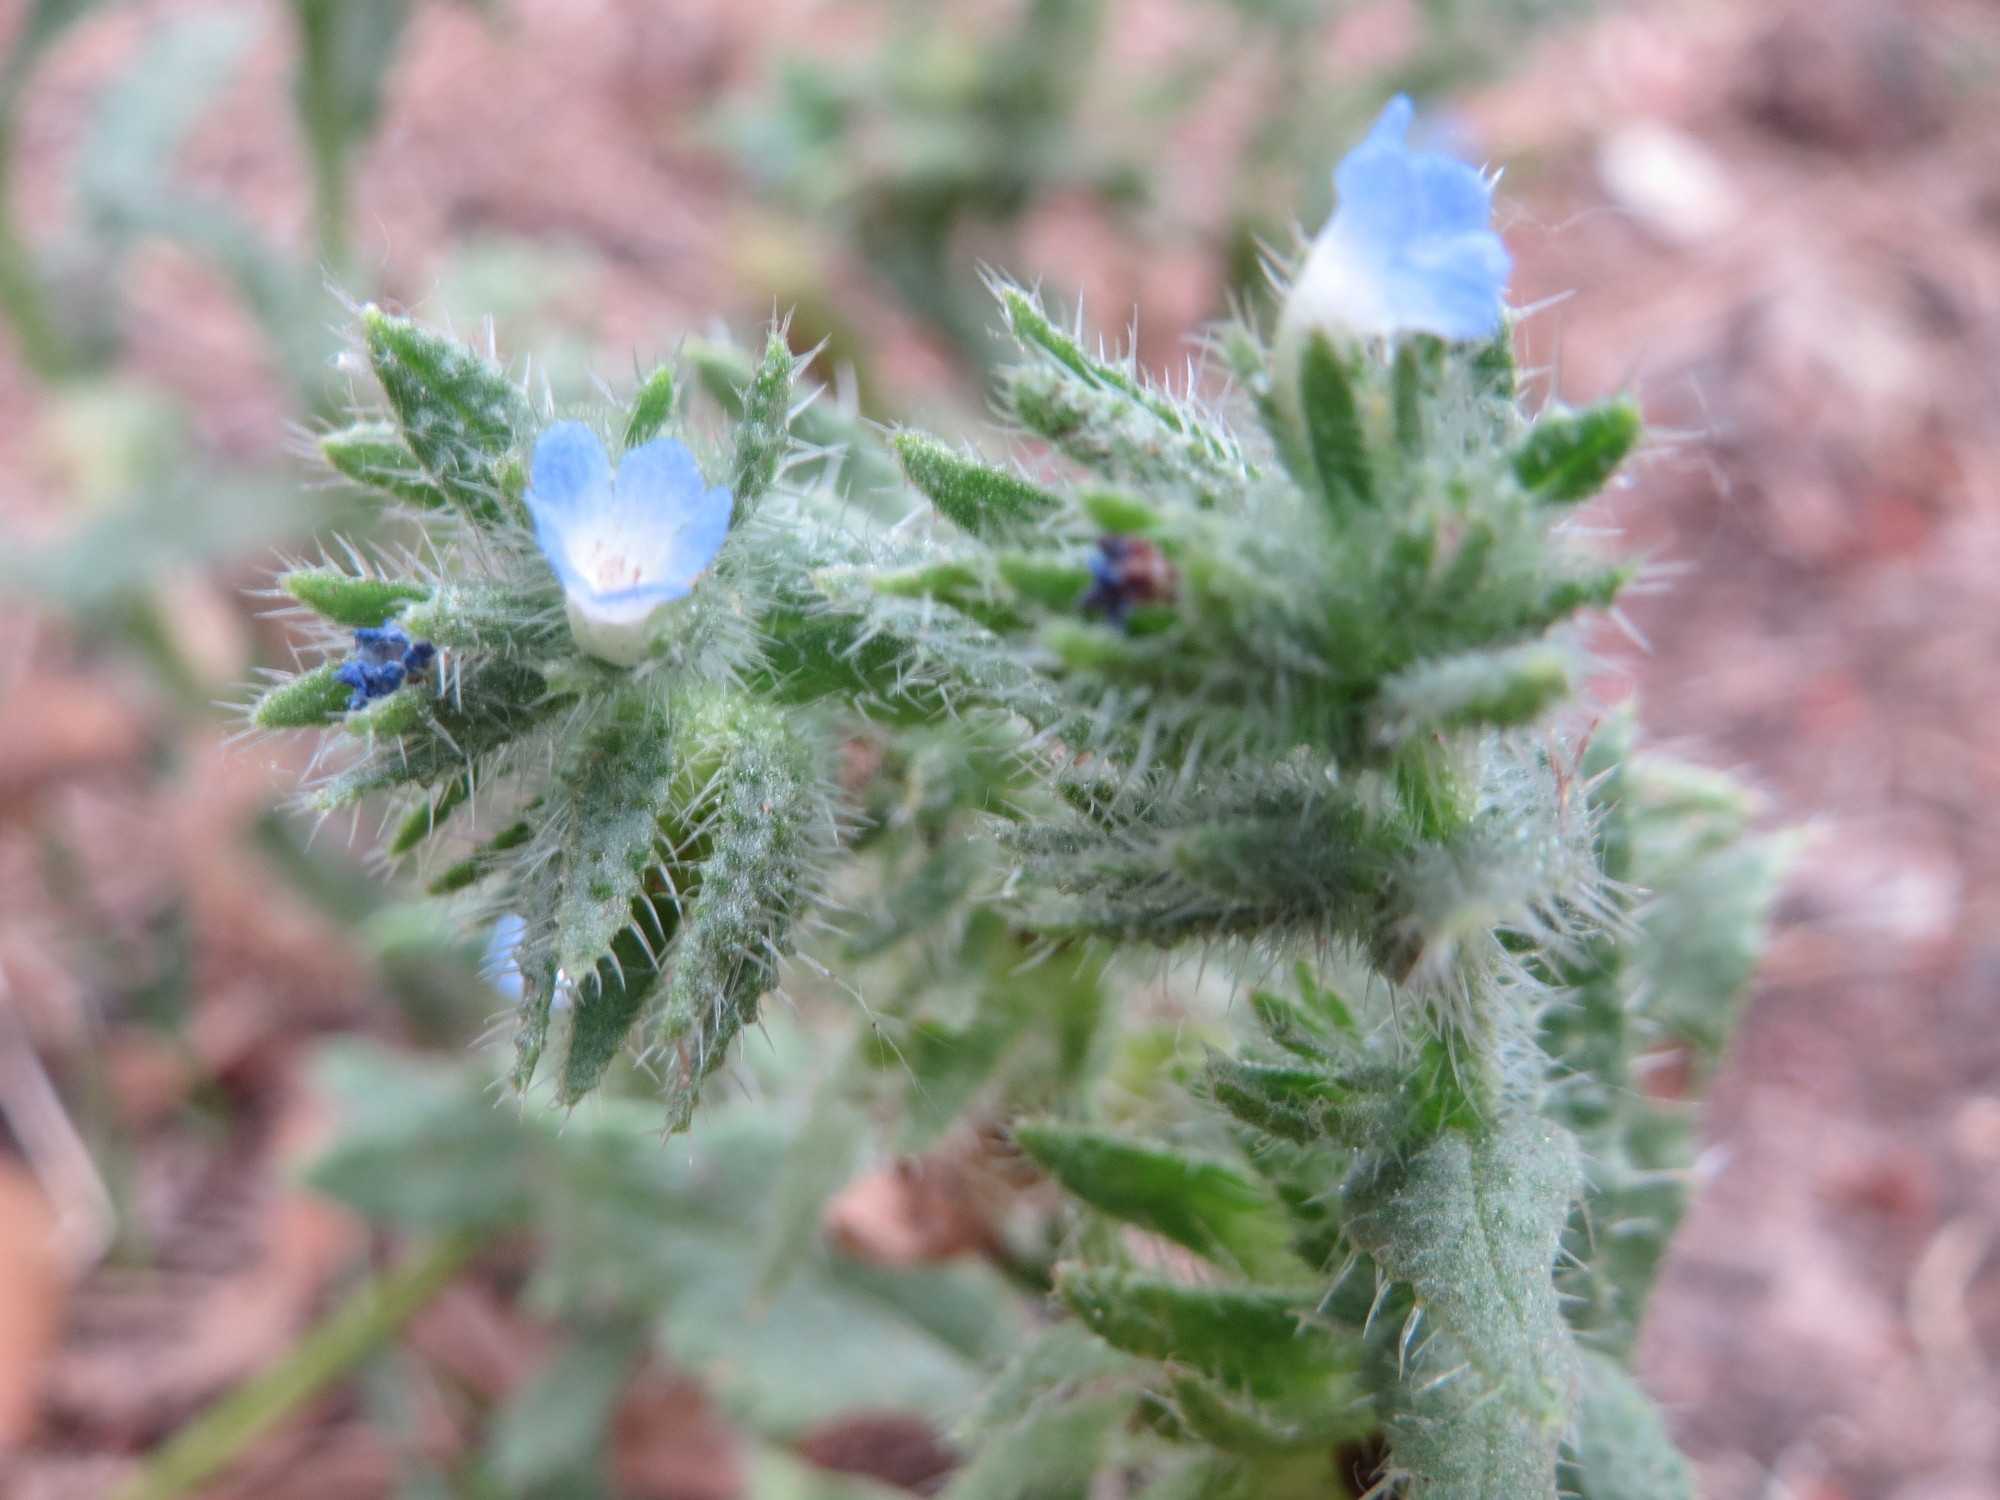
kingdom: Plantae
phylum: Tracheophyta
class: Magnoliopsida
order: Boraginales
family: Boraginaceae
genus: Lycopsis
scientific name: Lycopsis arvensis
